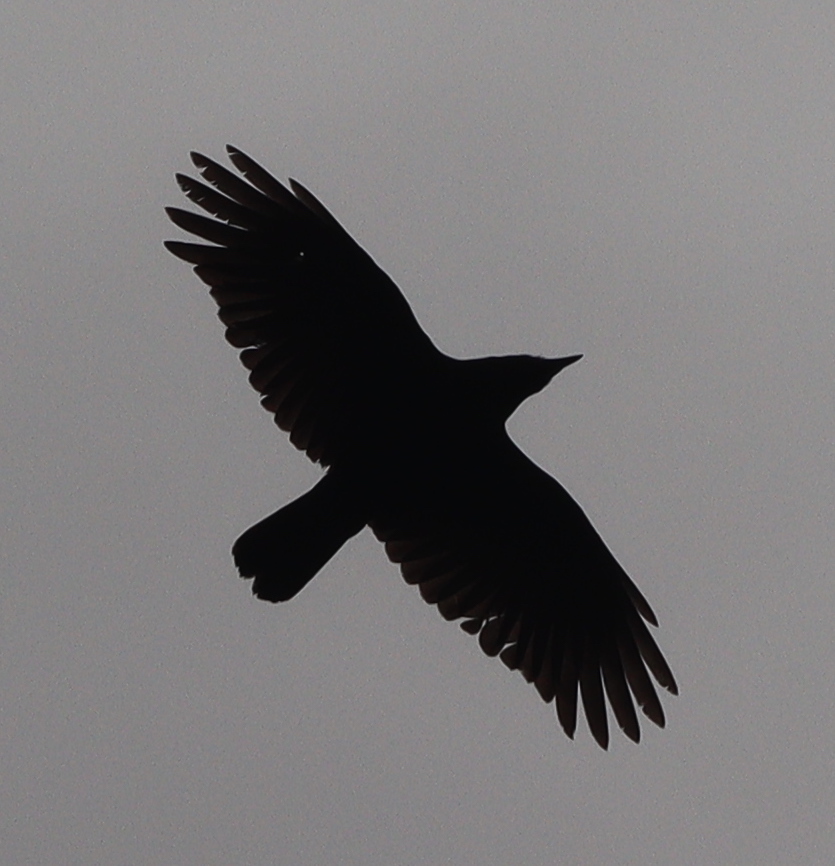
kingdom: Animalia
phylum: Chordata
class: Aves
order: Passeriformes
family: Corvidae
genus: Corvus
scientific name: Corvus corone
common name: Carrion crow
